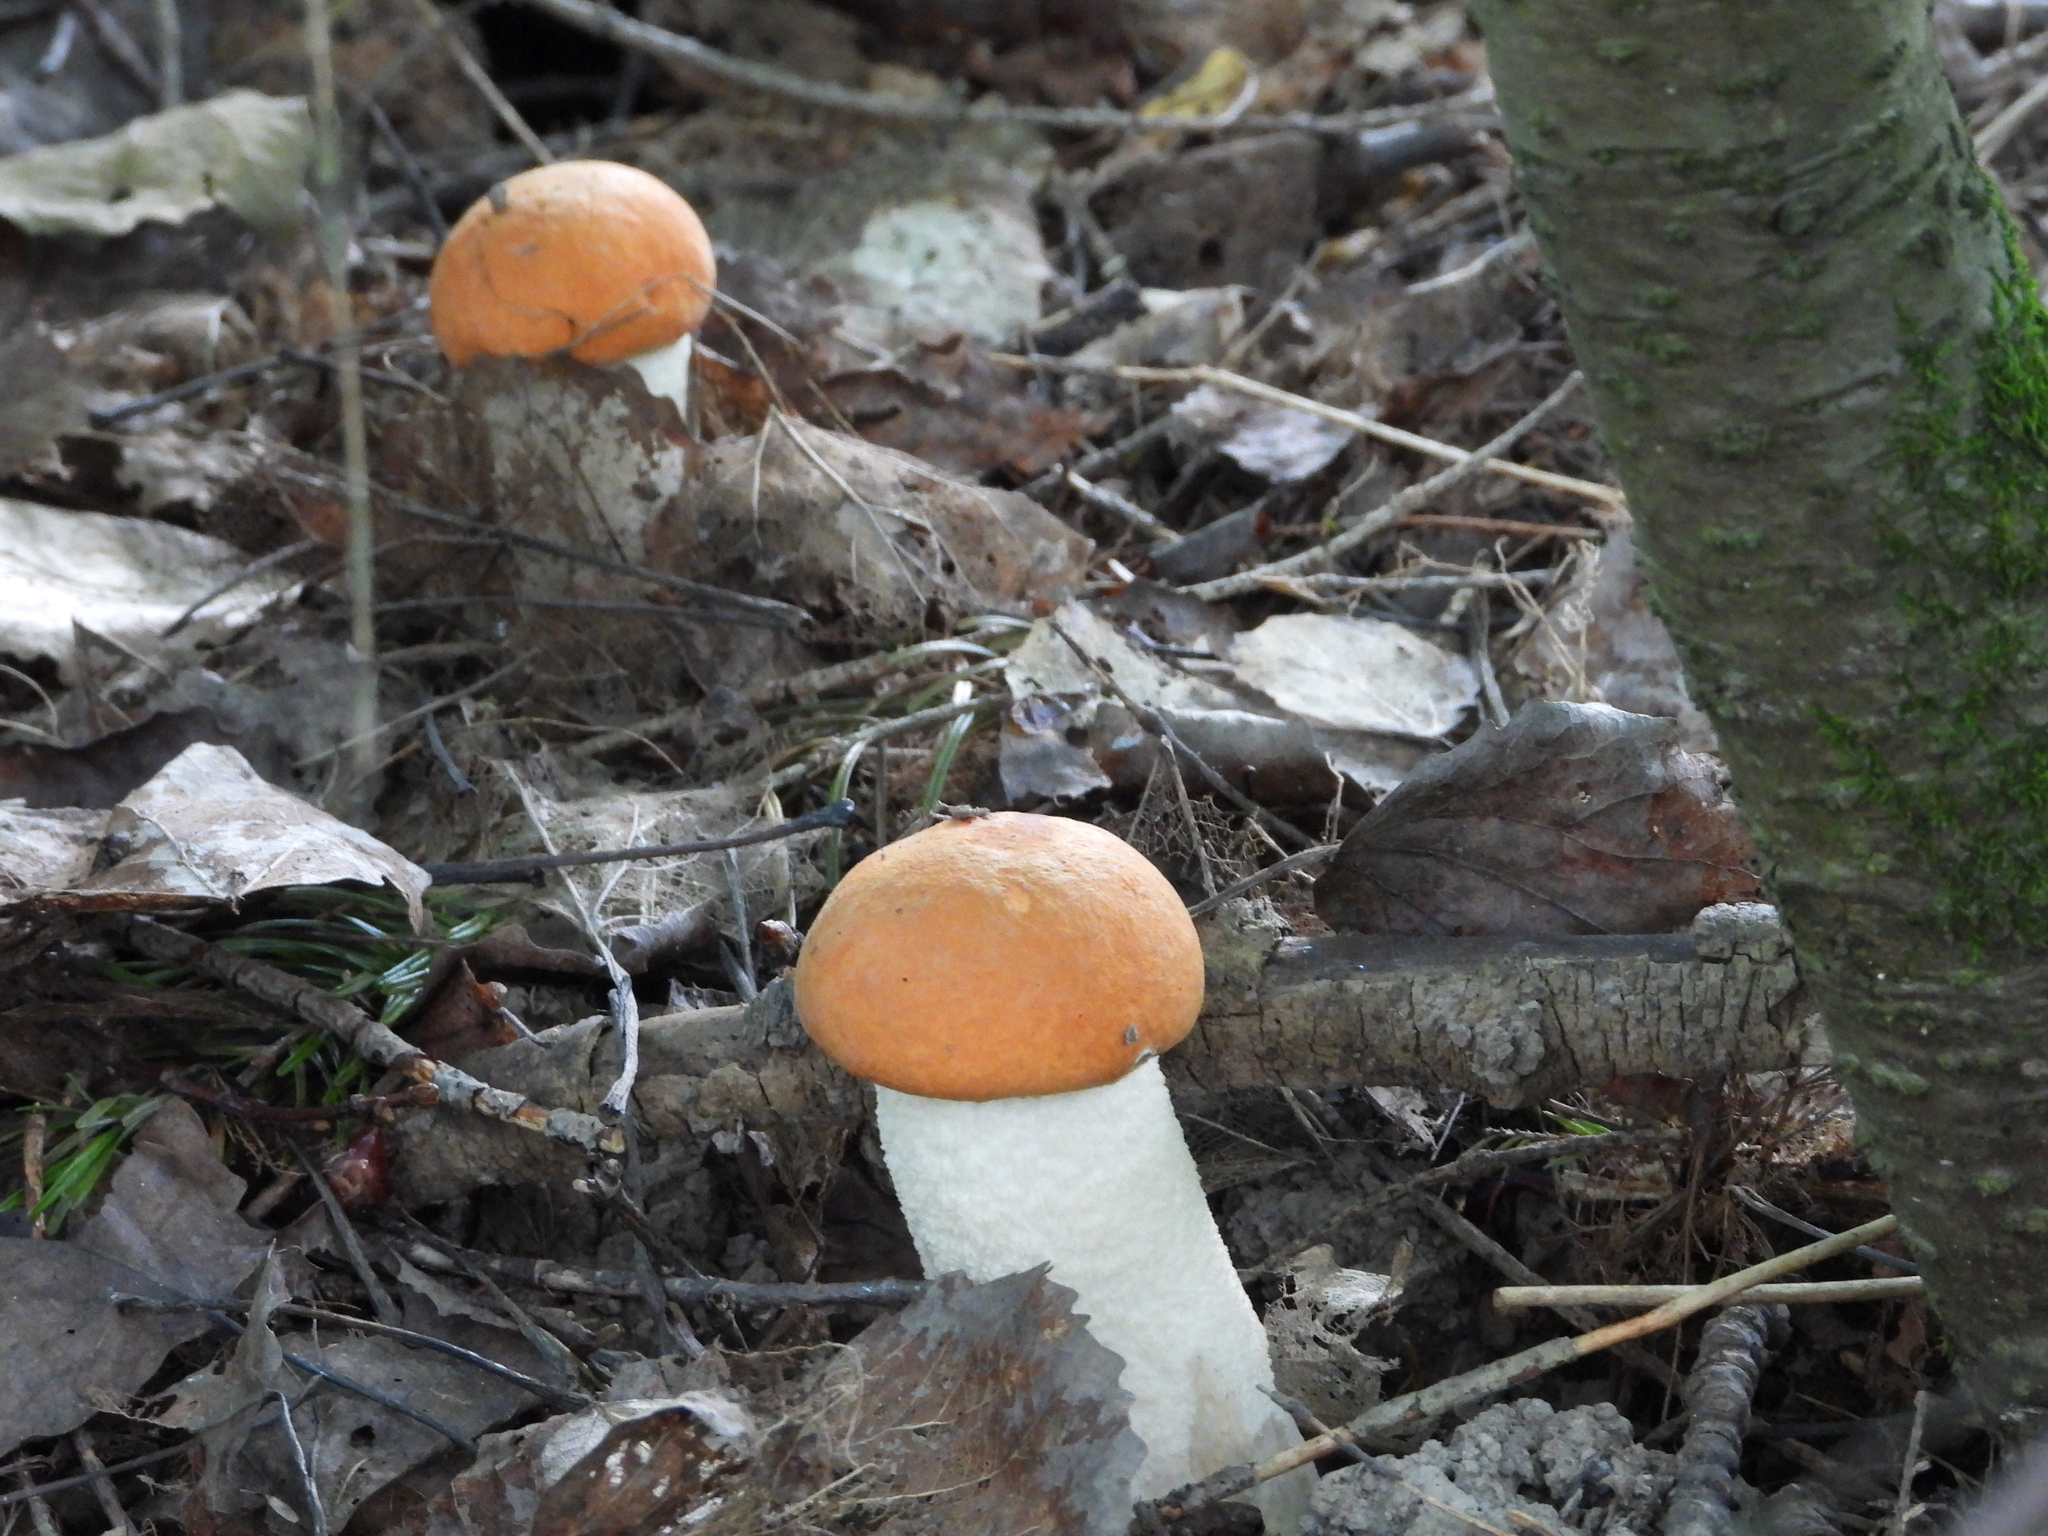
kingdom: Fungi
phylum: Basidiomycota
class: Agaricomycetes
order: Boletales
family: Boletaceae
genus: Leccinum
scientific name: Leccinum albostipitatum
